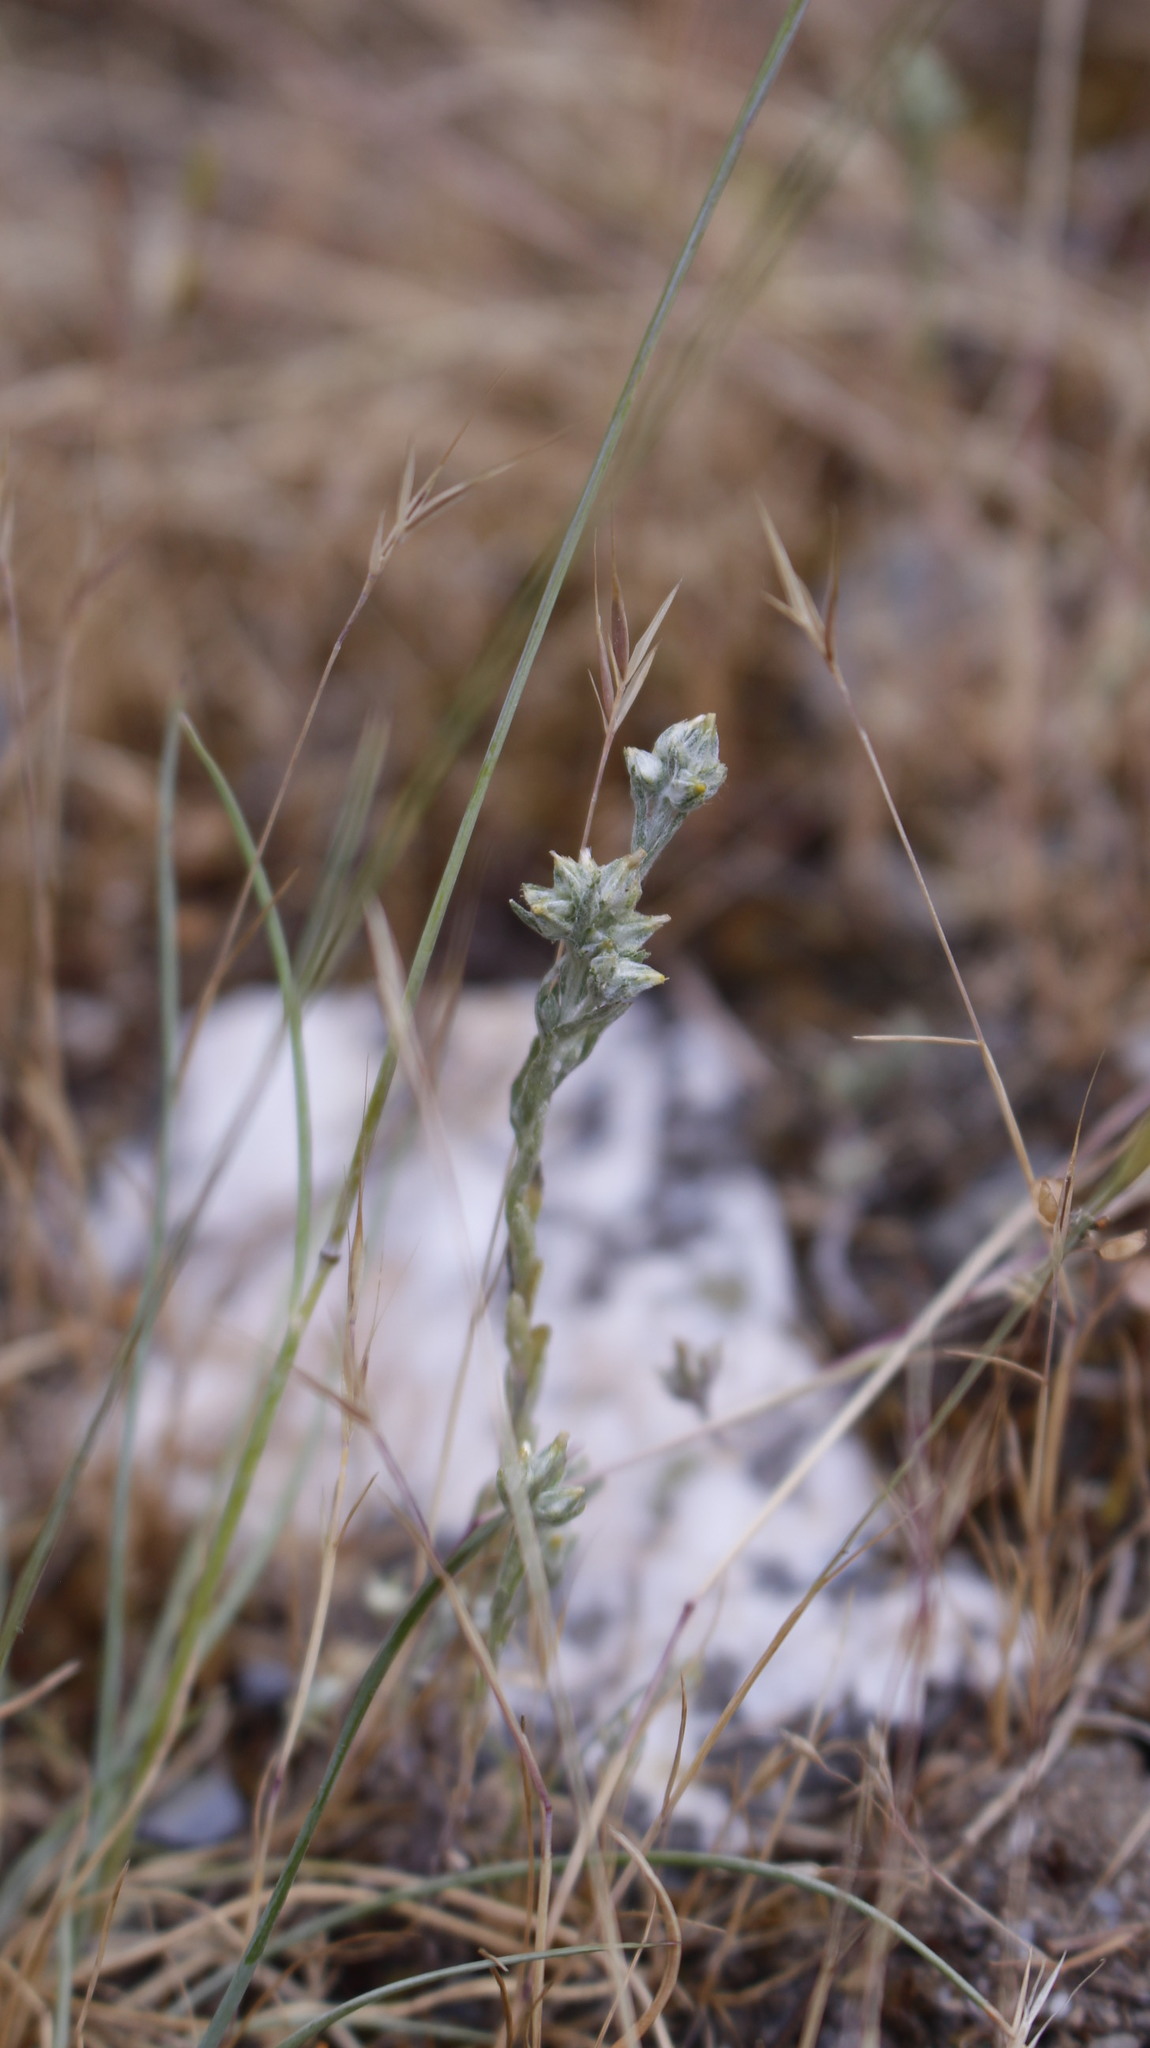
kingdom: Plantae
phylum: Tracheophyta
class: Magnoliopsida
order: Asterales
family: Asteraceae
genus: Logfia
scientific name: Logfia minima
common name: Little cottonrose
